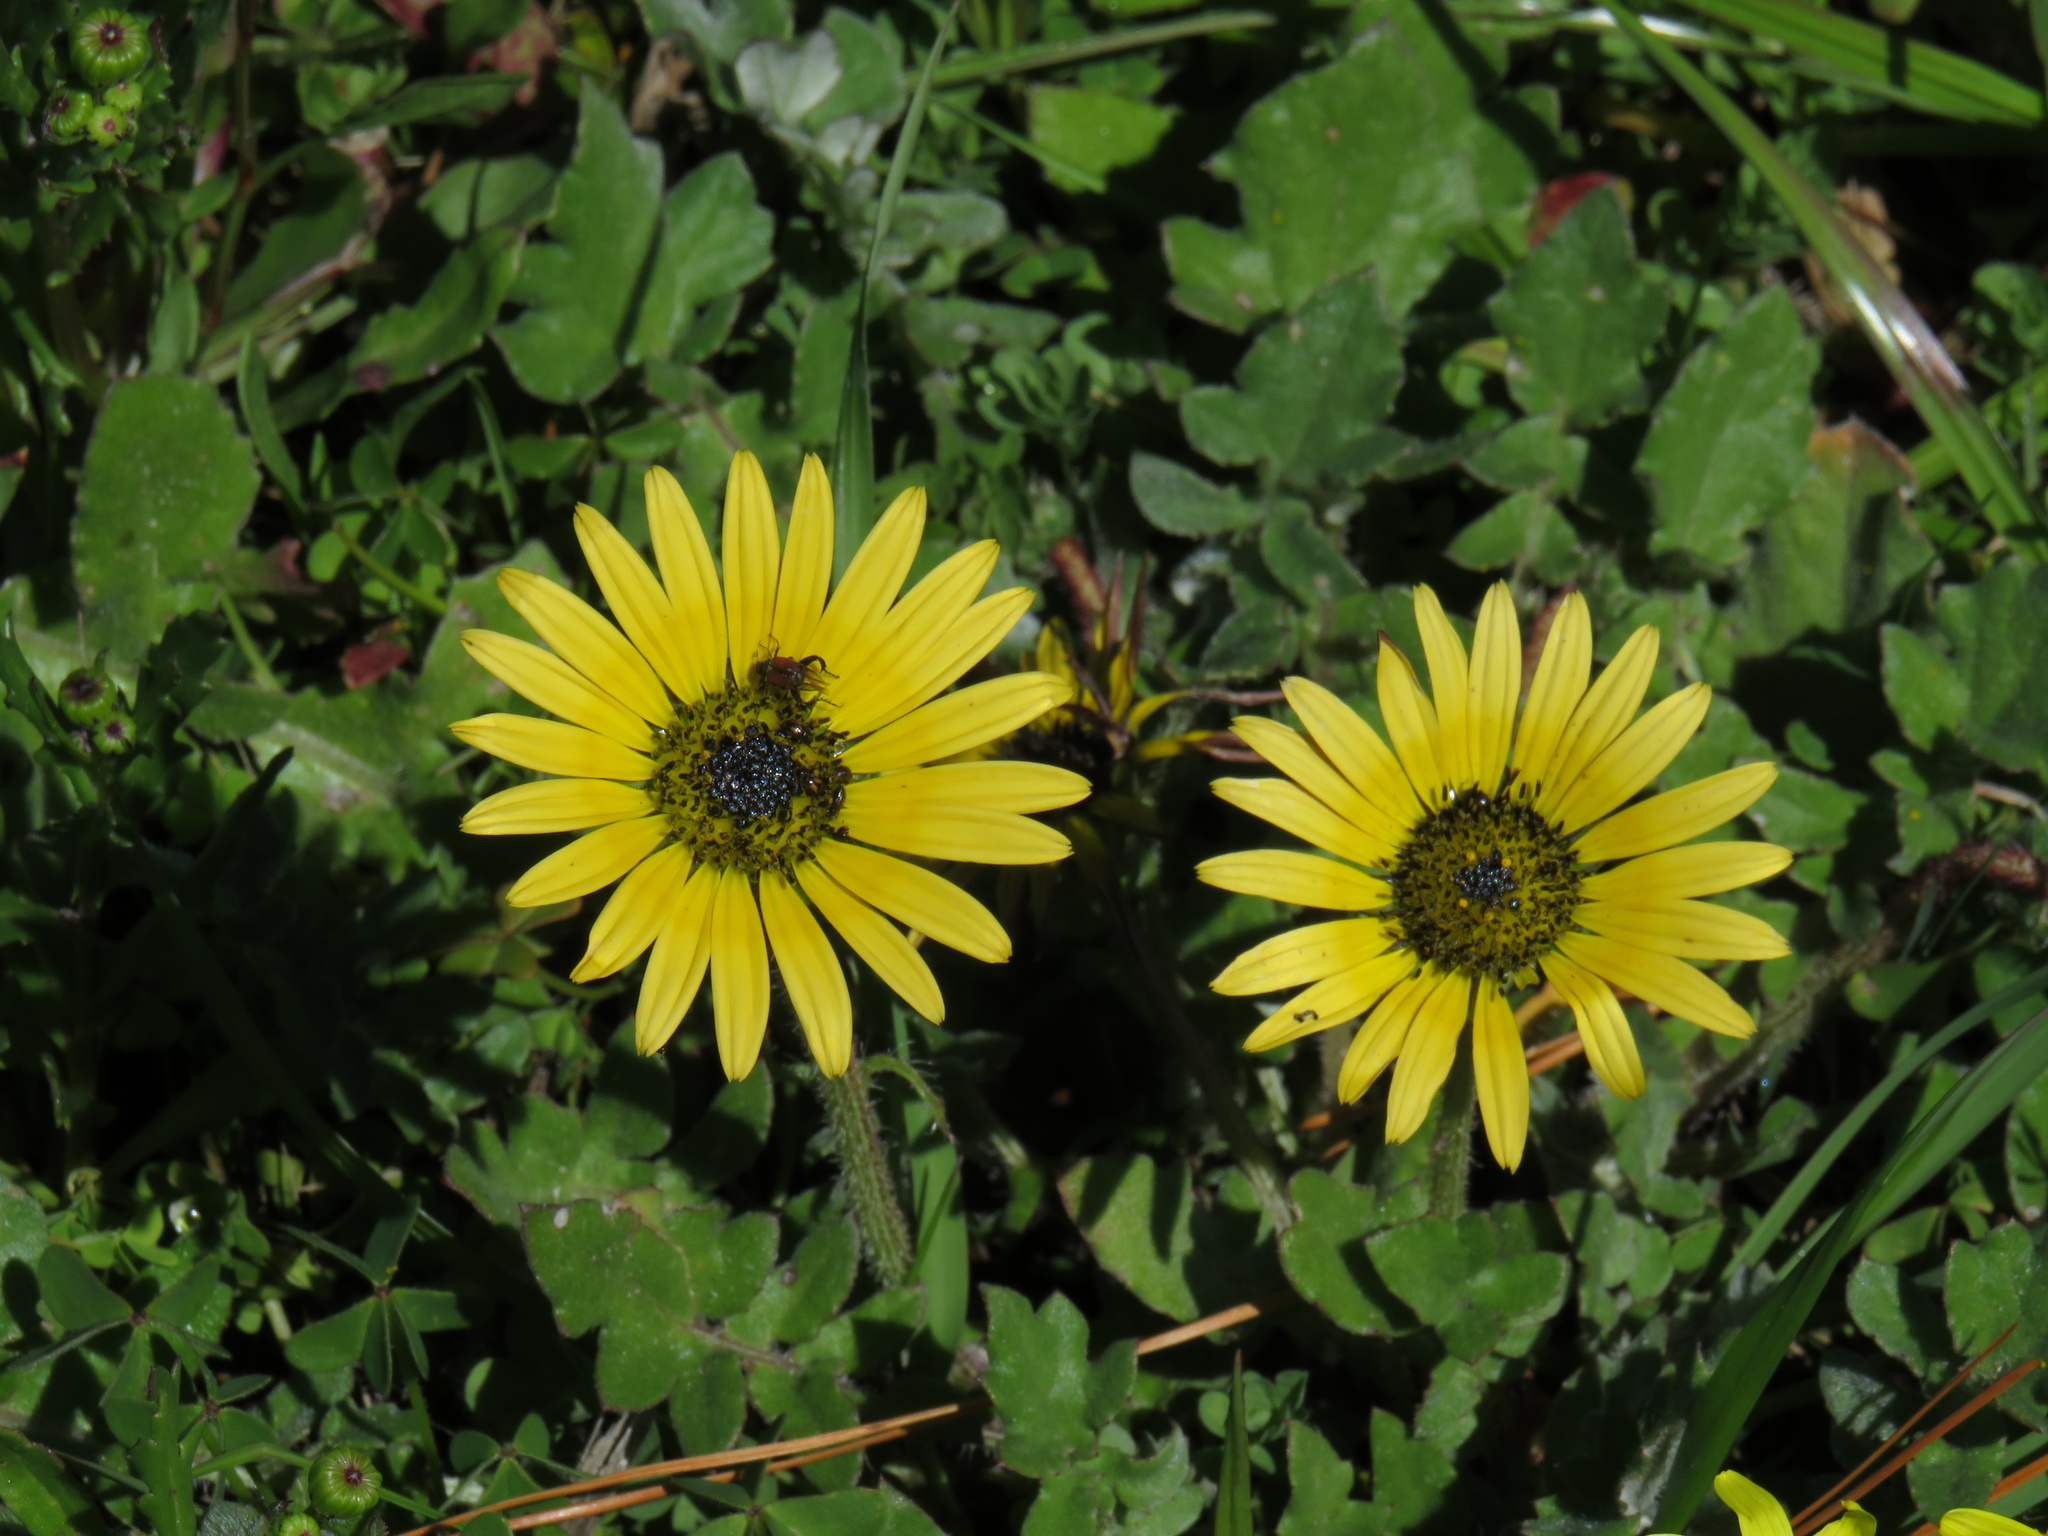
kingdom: Plantae
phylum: Tracheophyta
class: Magnoliopsida
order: Asterales
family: Asteraceae
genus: Arctotheca
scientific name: Arctotheca calendula
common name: Capeweed
